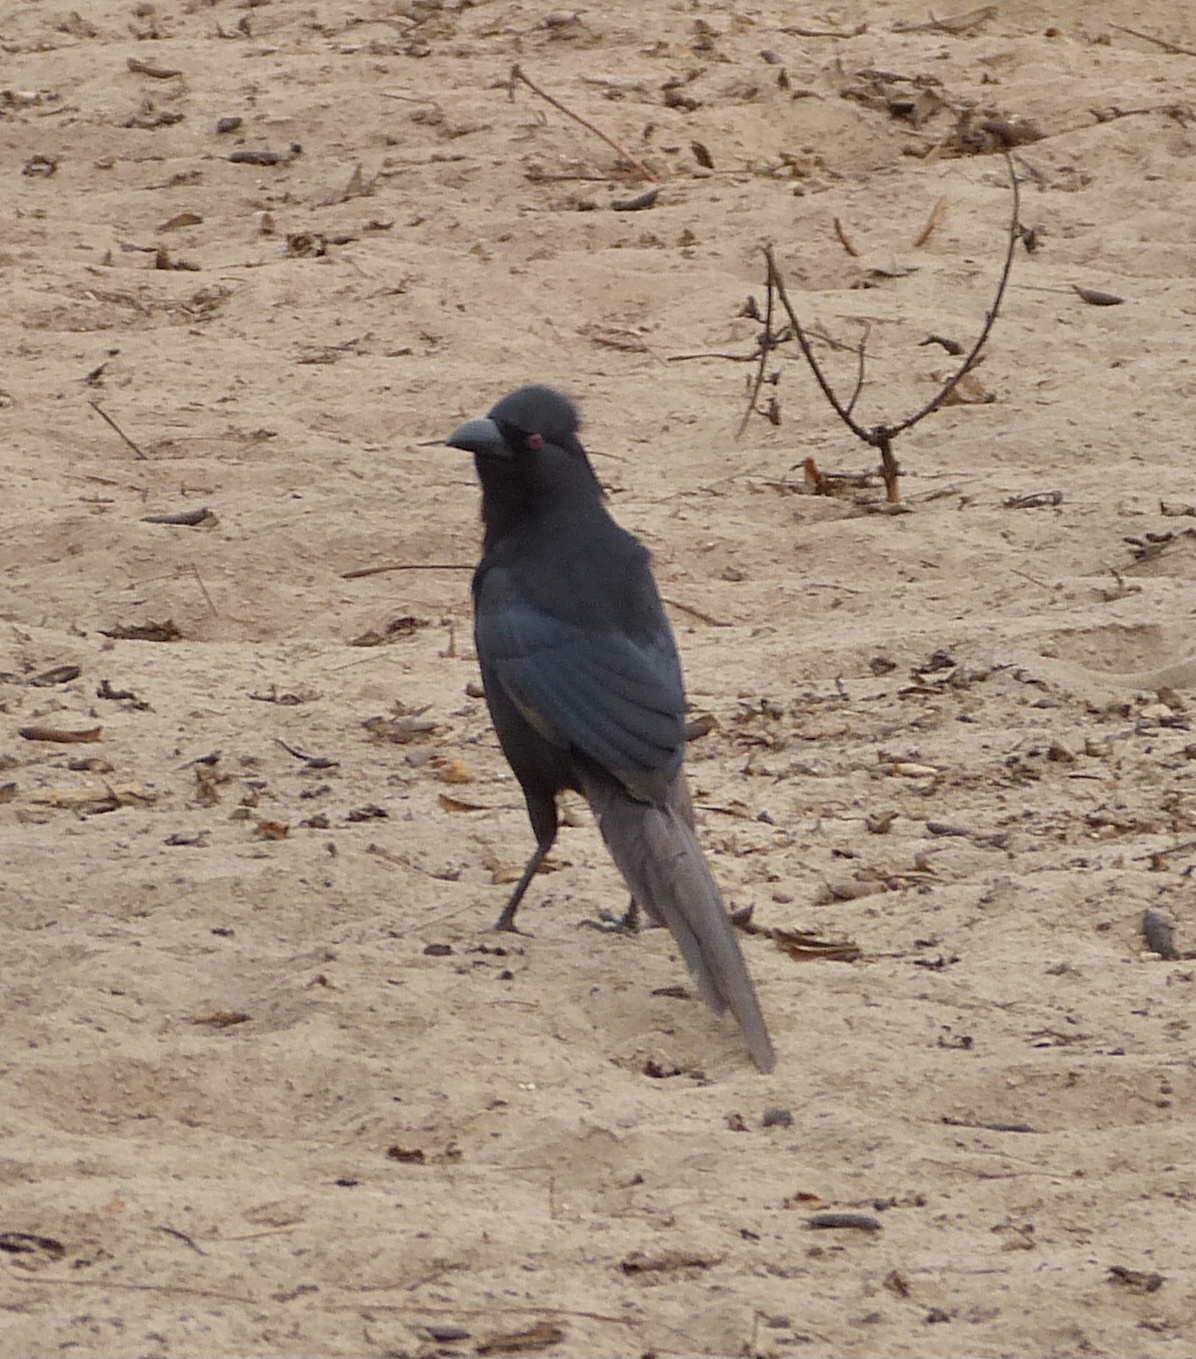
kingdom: Animalia
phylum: Chordata
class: Aves
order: Passeriformes
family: Corvidae
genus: Ptilostomus
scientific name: Ptilostomus afer
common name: Piapiac
